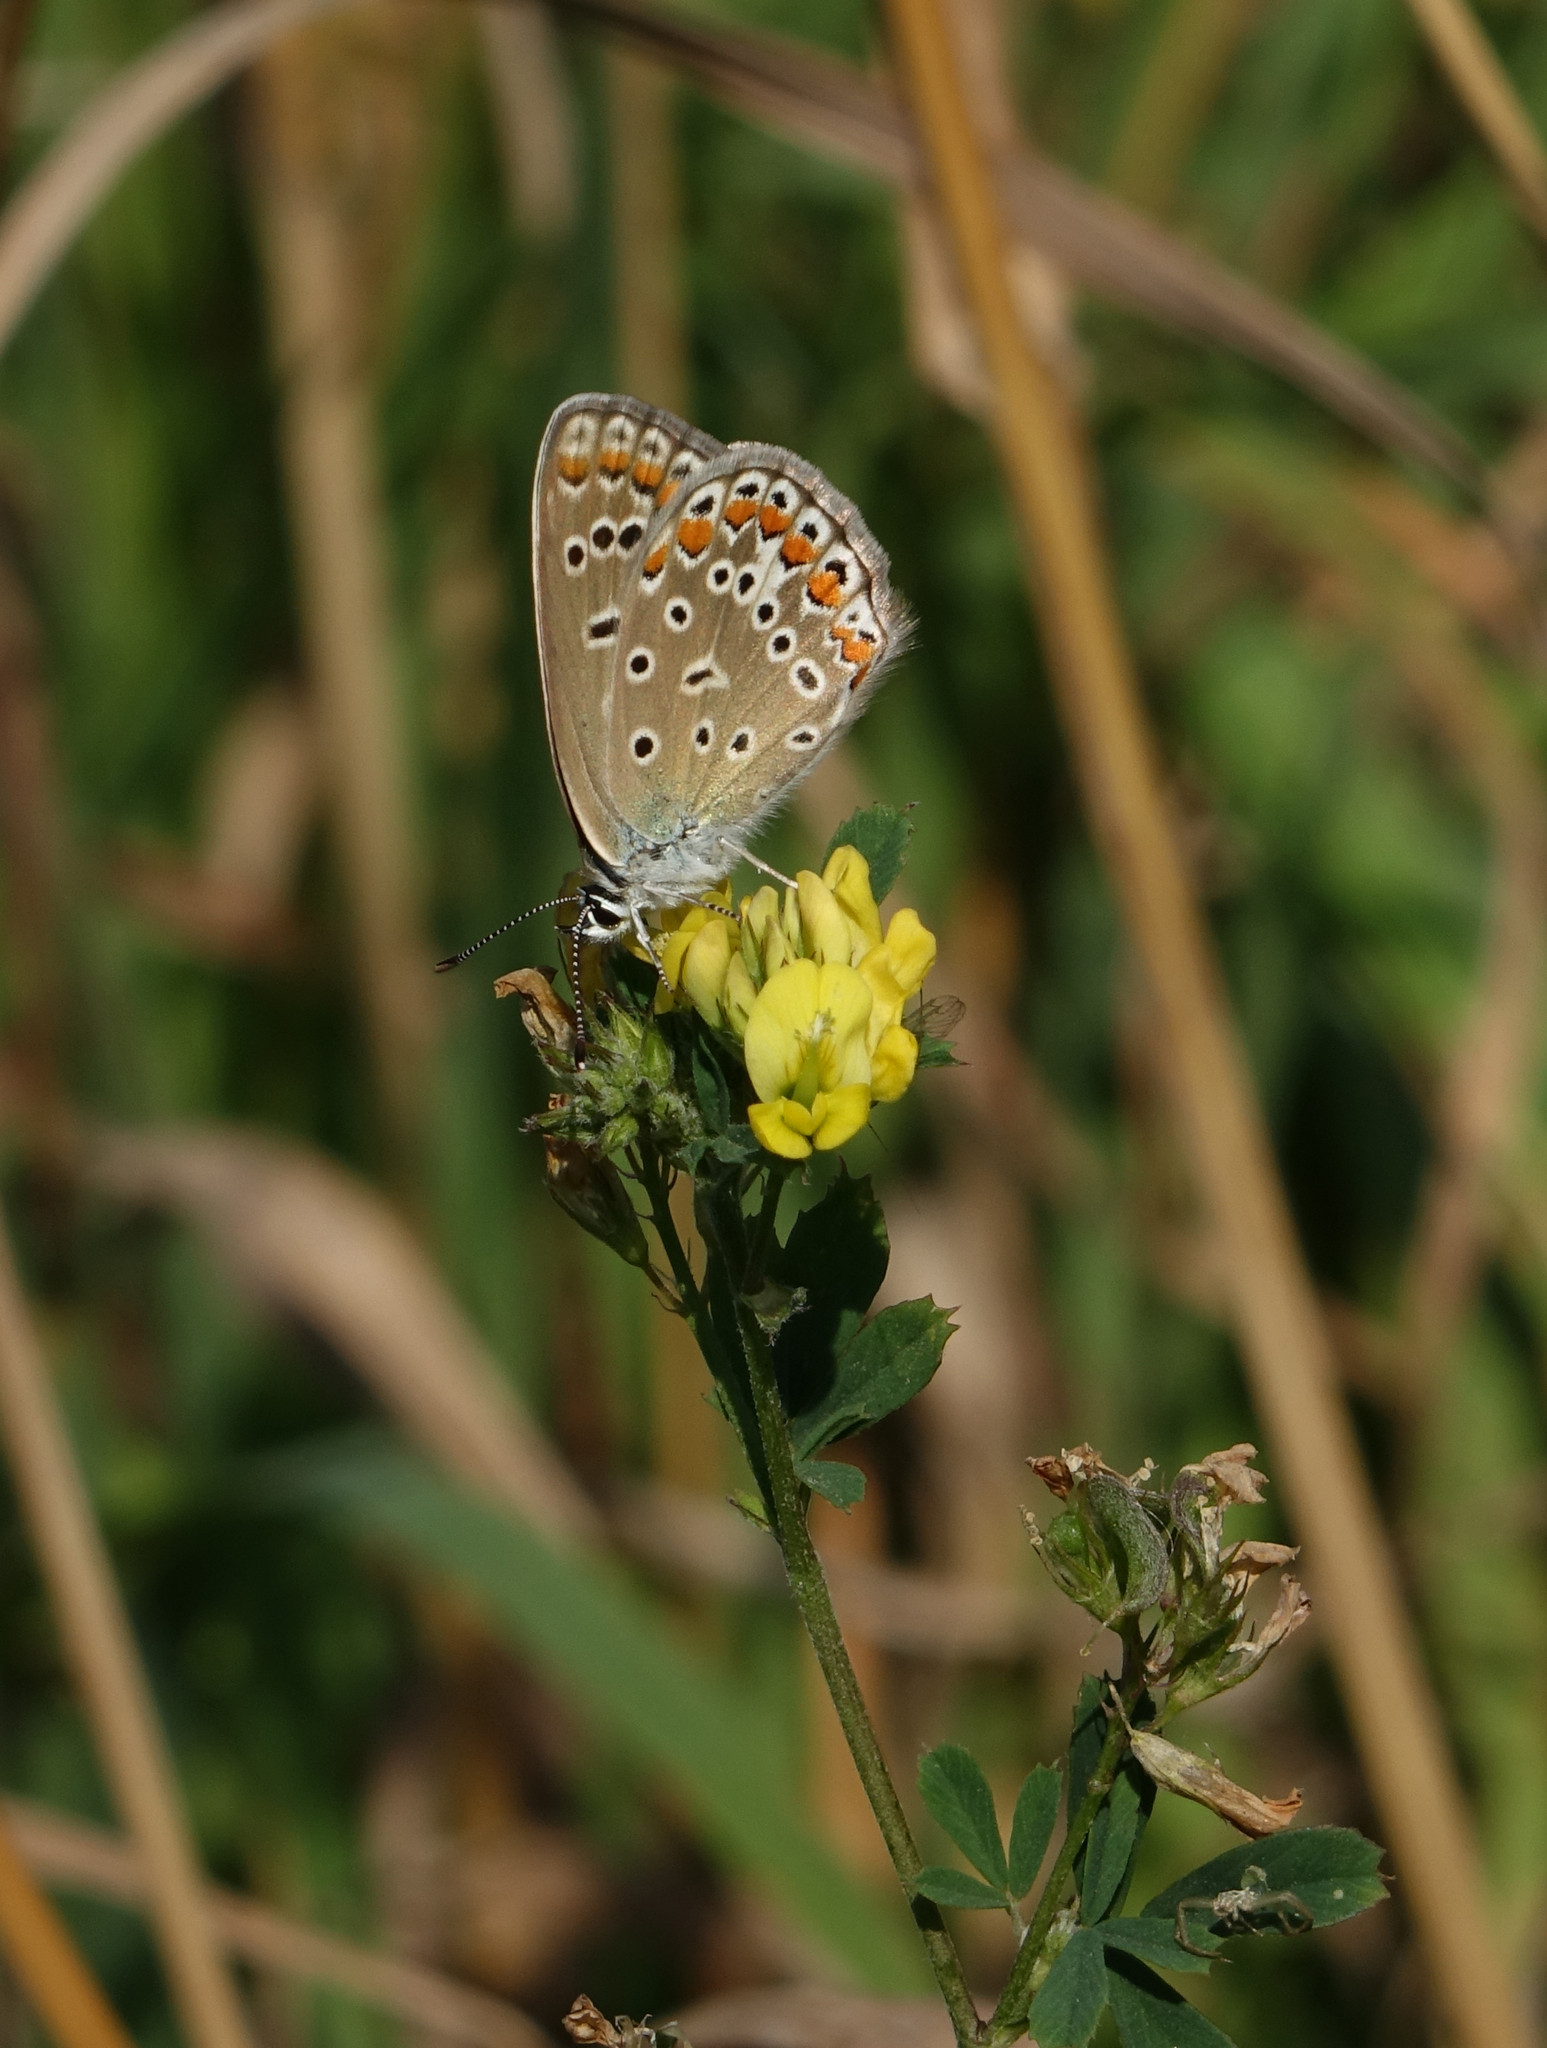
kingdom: Animalia
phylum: Arthropoda
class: Insecta
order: Lepidoptera
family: Lycaenidae
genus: Polyommatus
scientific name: Polyommatus icarus
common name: Common blue
